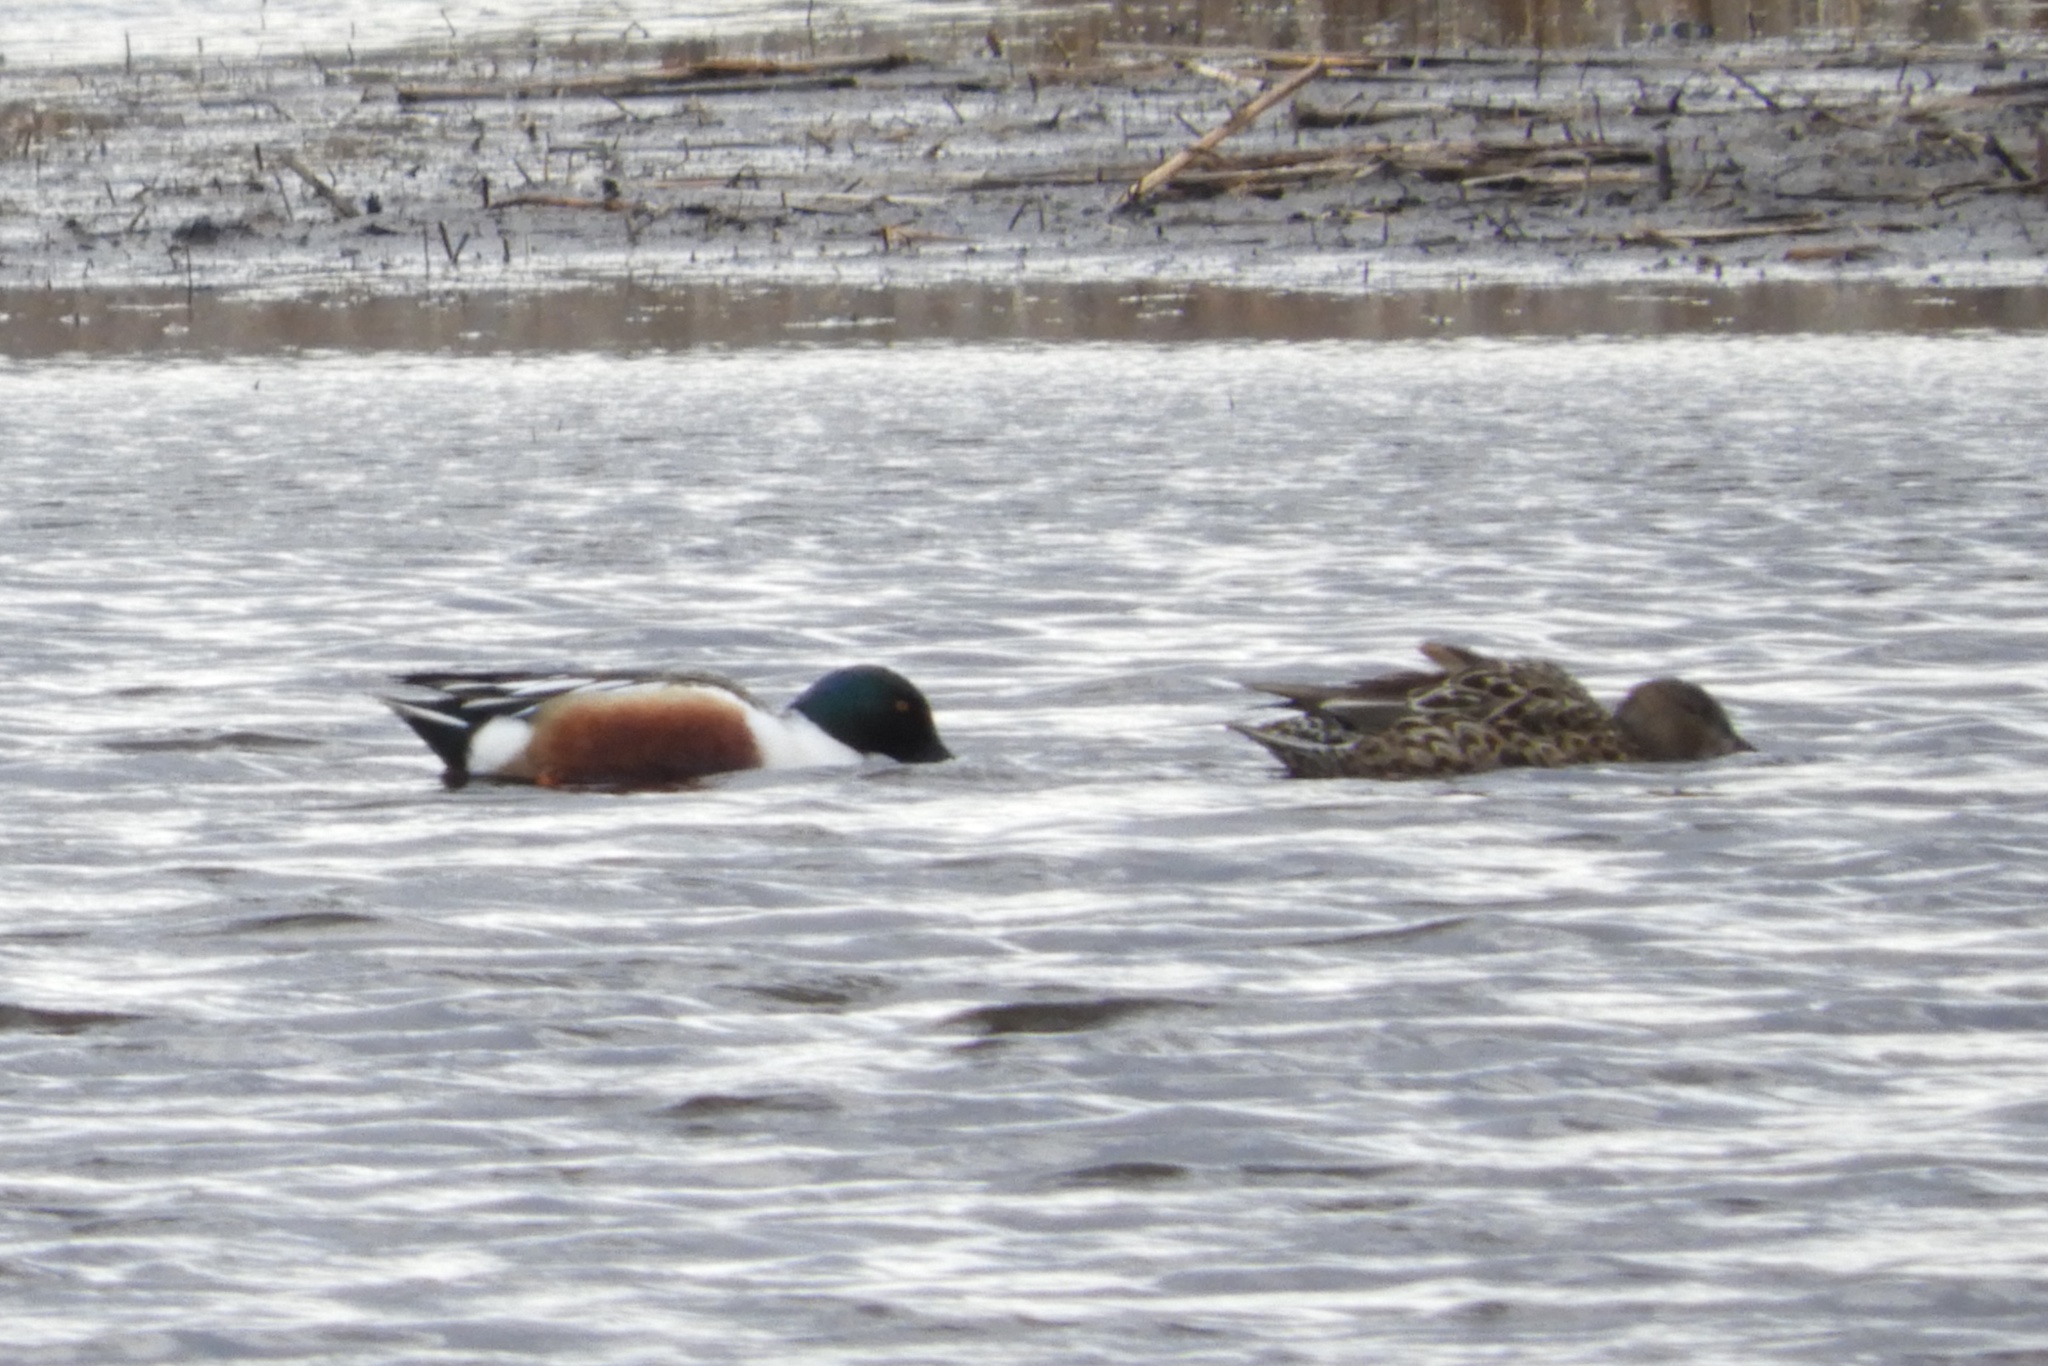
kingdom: Animalia
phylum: Chordata
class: Aves
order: Anseriformes
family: Anatidae
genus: Spatula
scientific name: Spatula clypeata
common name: Northern shoveler
